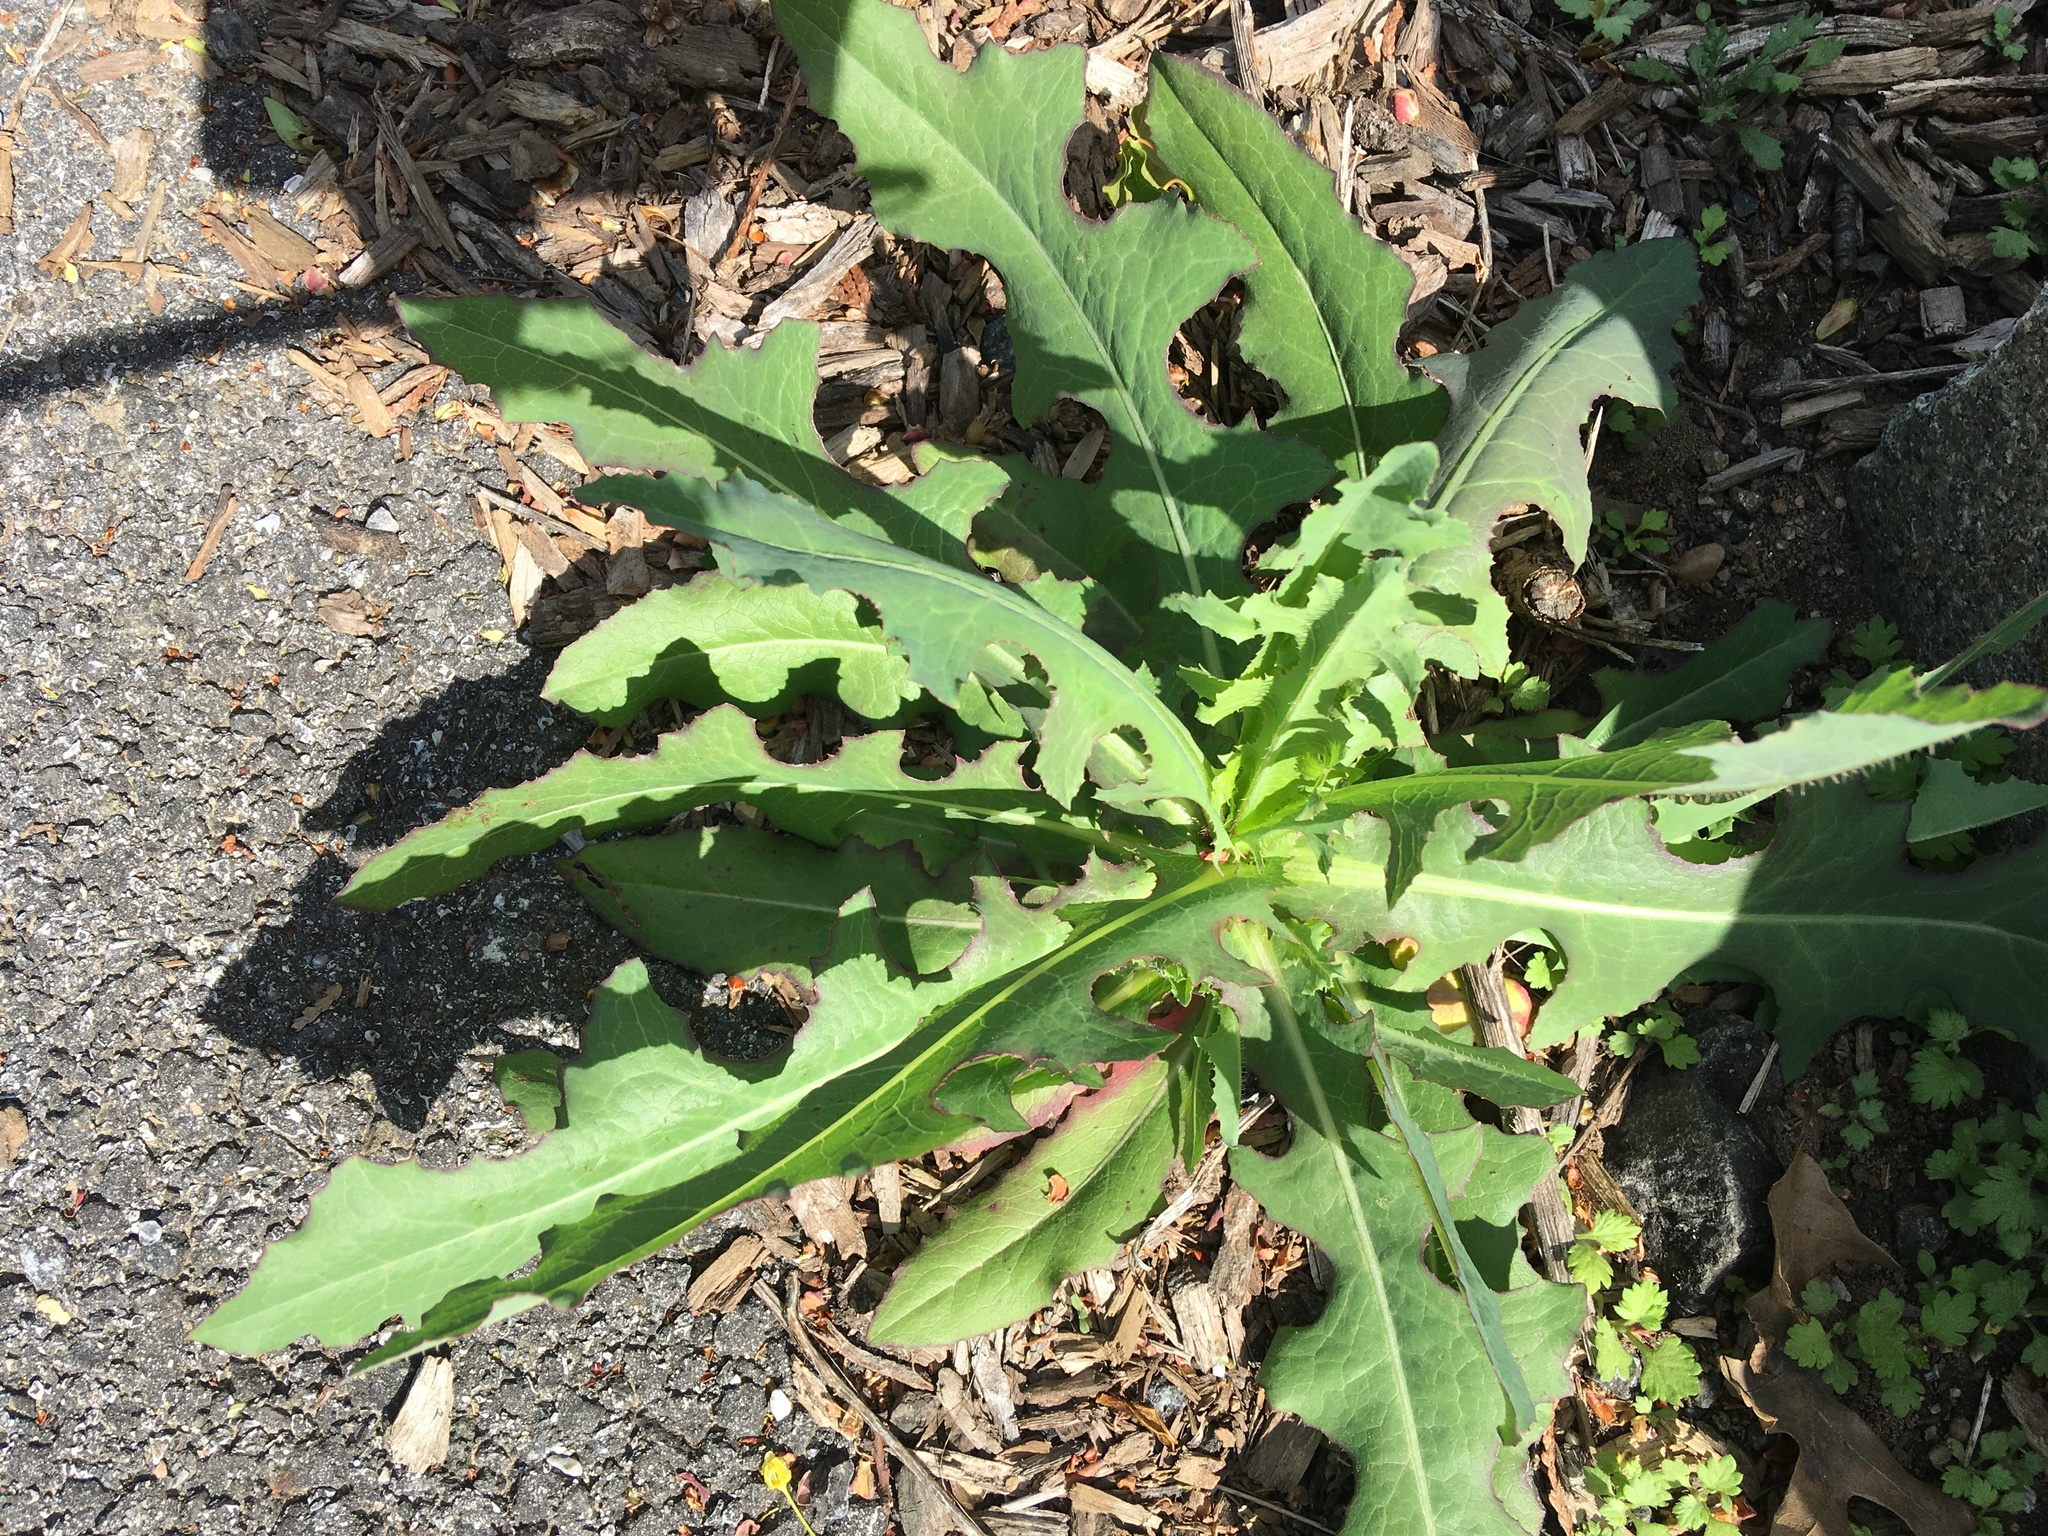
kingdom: Plantae
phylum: Tracheophyta
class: Magnoliopsida
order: Asterales
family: Asteraceae
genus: Lactuca
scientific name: Lactuca serriola
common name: Prickly lettuce
